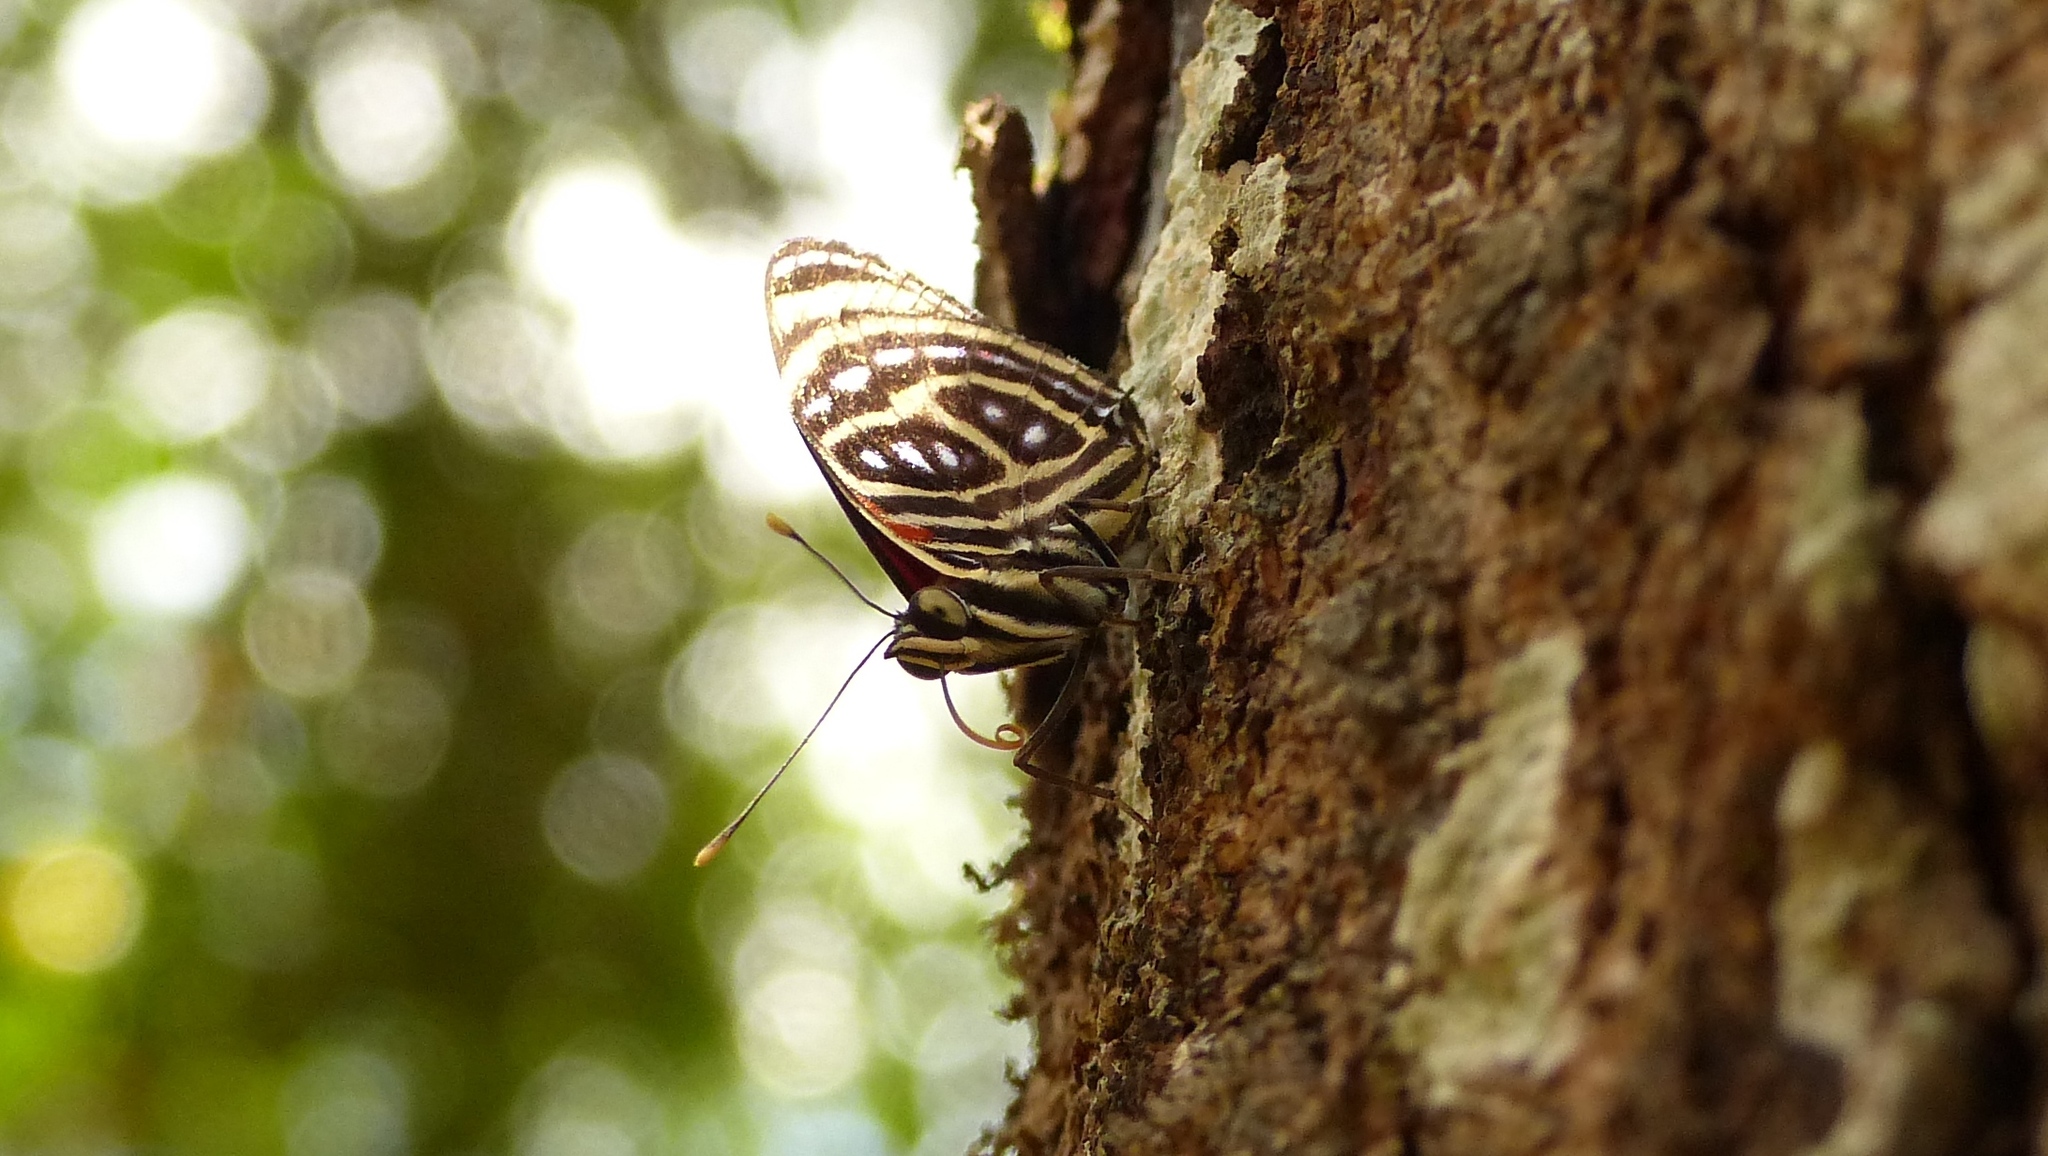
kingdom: Animalia
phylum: Arthropoda
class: Insecta
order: Lepidoptera
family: Nymphalidae
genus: Catagramma
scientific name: Catagramma pygas
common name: Godart's numberwing
